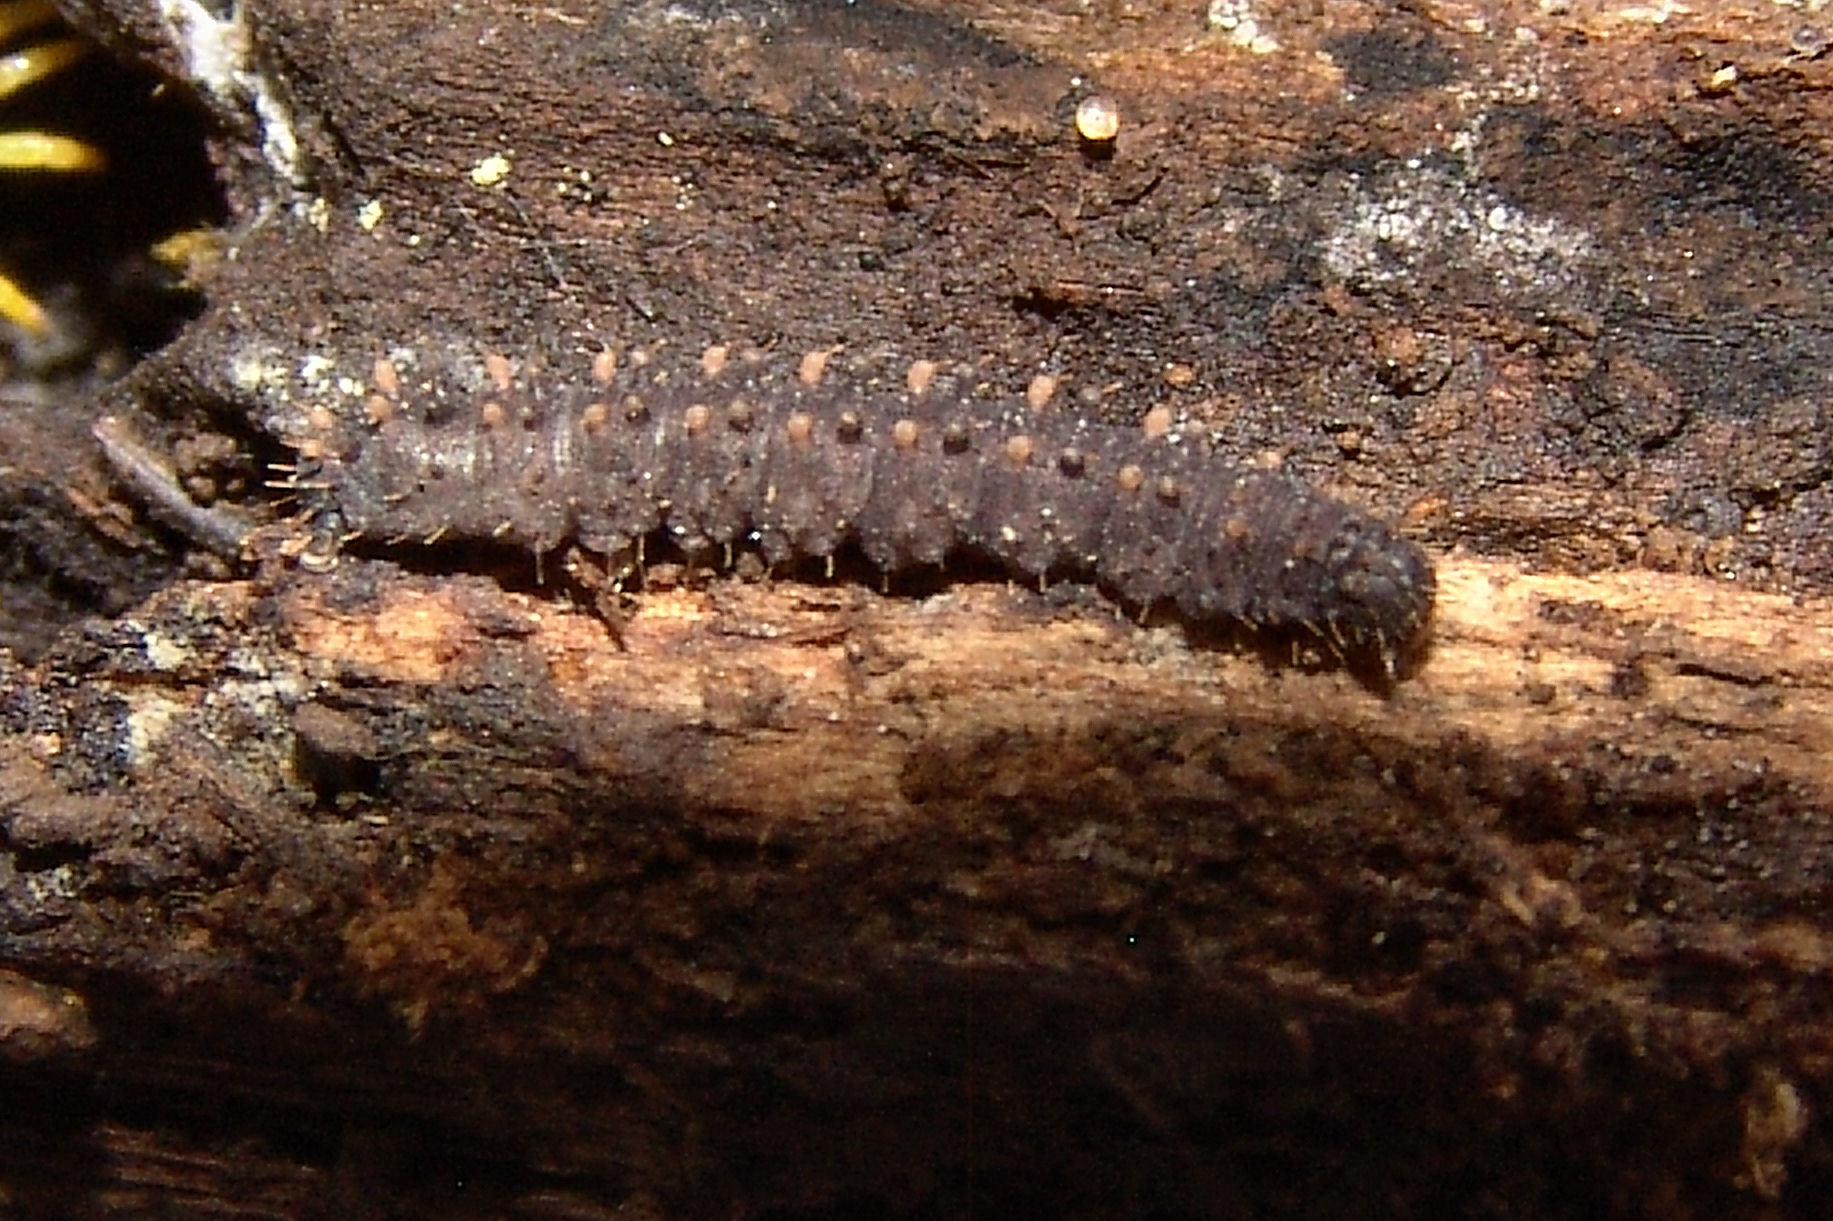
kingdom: Animalia
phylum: Arthropoda
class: Insecta
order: Lepidoptera
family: Erebidae
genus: Idia
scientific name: Idia lubricalis
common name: Twin-striped tabby
